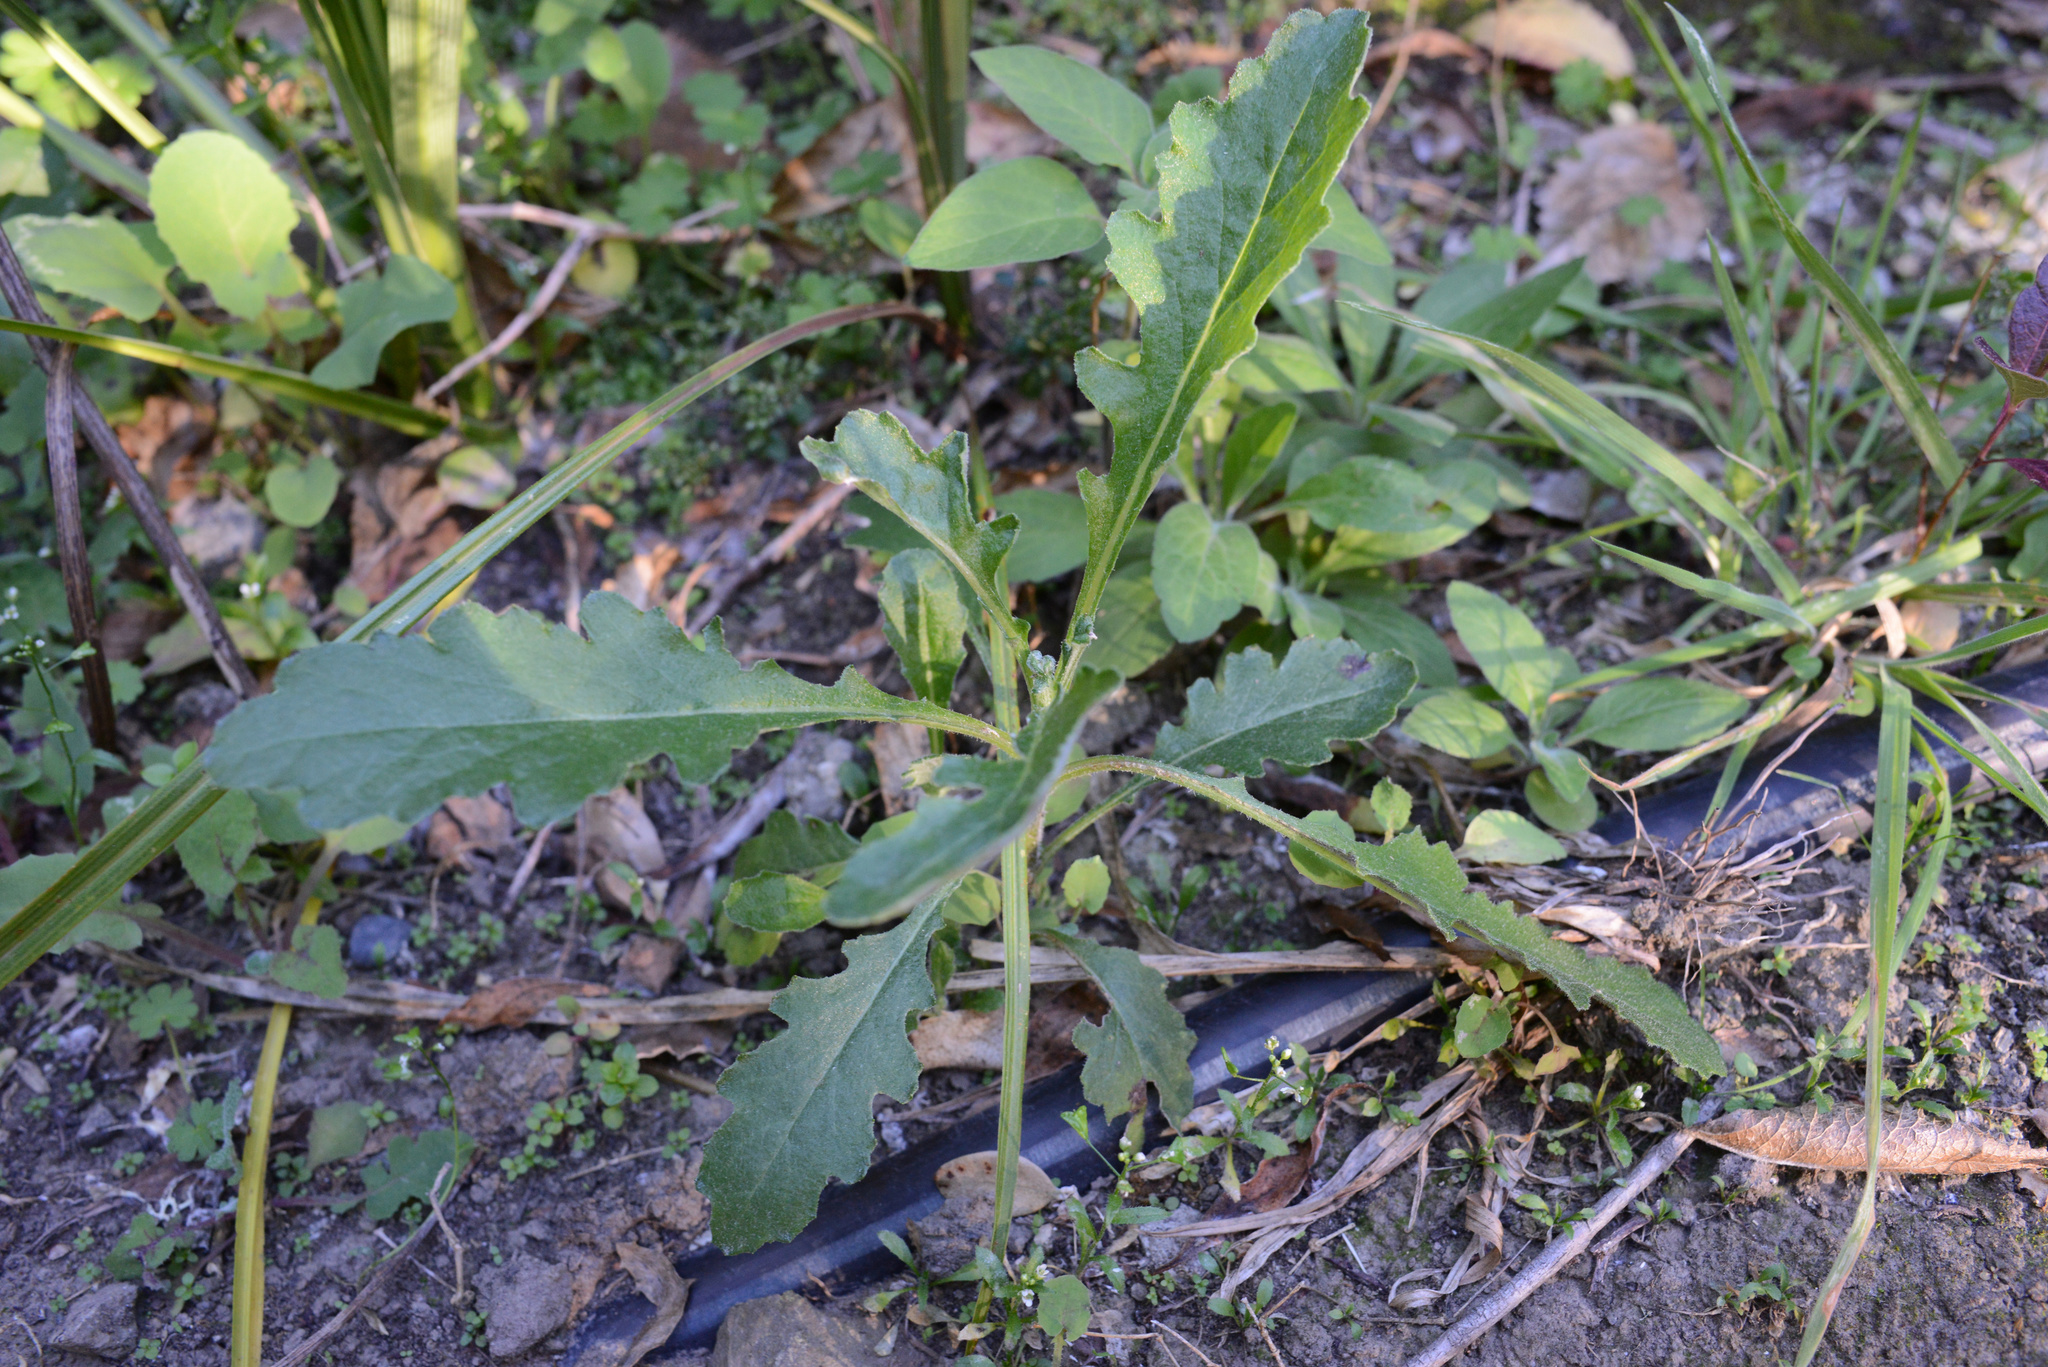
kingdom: Plantae
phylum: Tracheophyta
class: Magnoliopsida
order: Asterales
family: Asteraceae
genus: Senecio
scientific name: Senecio glomeratus
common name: Cutleaf burnweed
